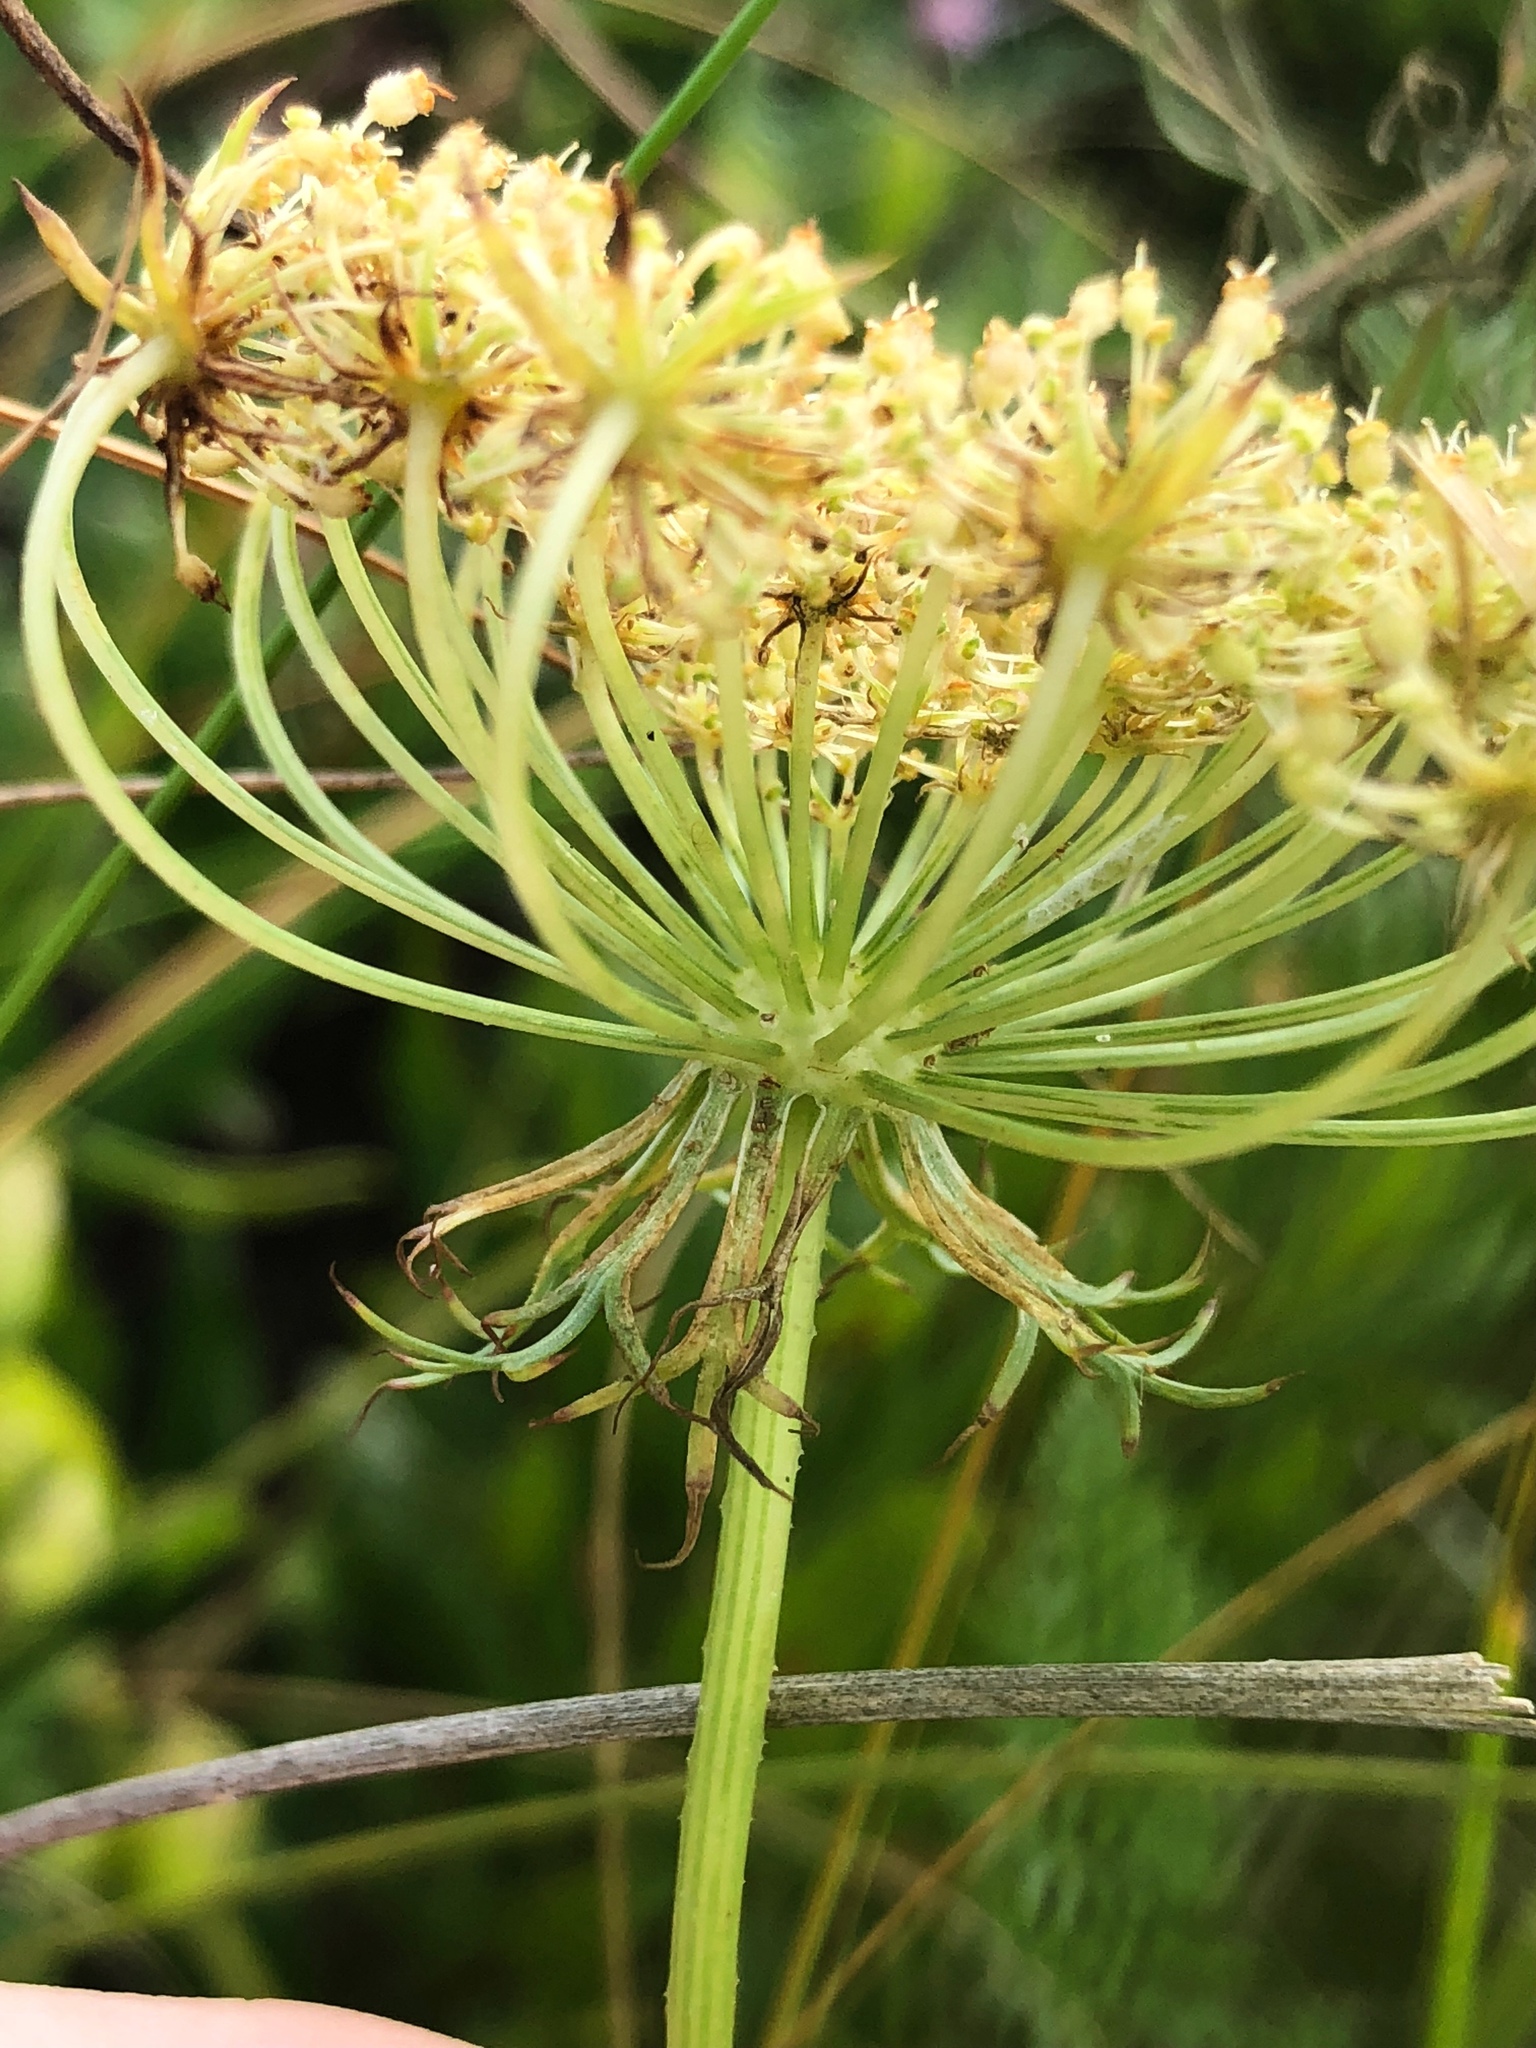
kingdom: Plantae
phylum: Tracheophyta
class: Magnoliopsida
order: Apiales
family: Apiaceae
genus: Daucus
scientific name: Daucus carota
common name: Wild carrot
